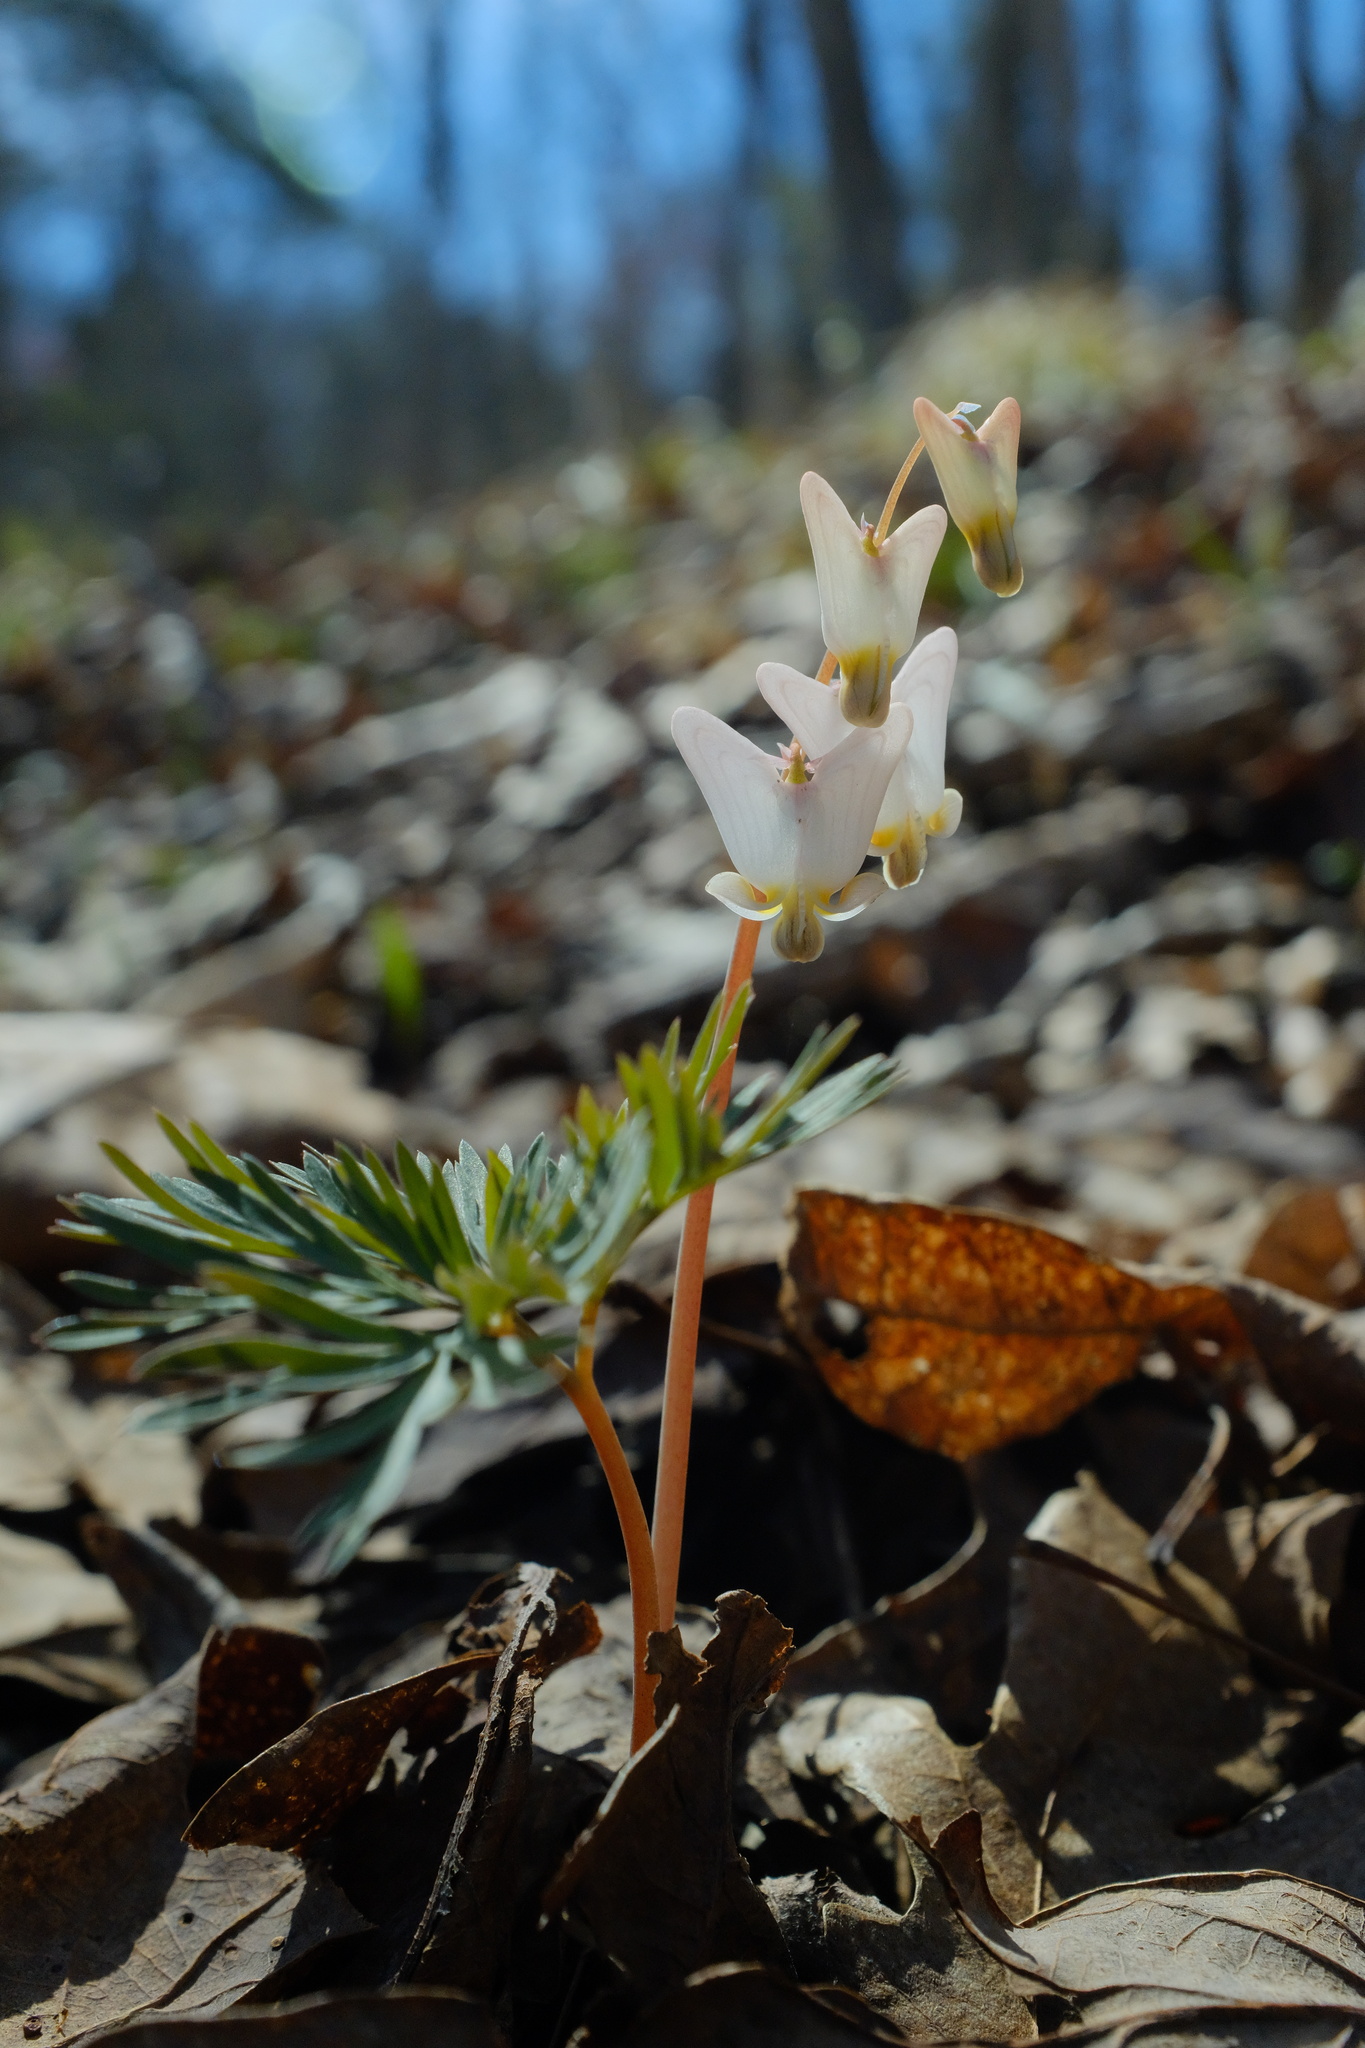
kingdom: Plantae
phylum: Tracheophyta
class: Magnoliopsida
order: Ranunculales
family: Papaveraceae
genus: Dicentra
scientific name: Dicentra cucullaria
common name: Dutchman's breeches
